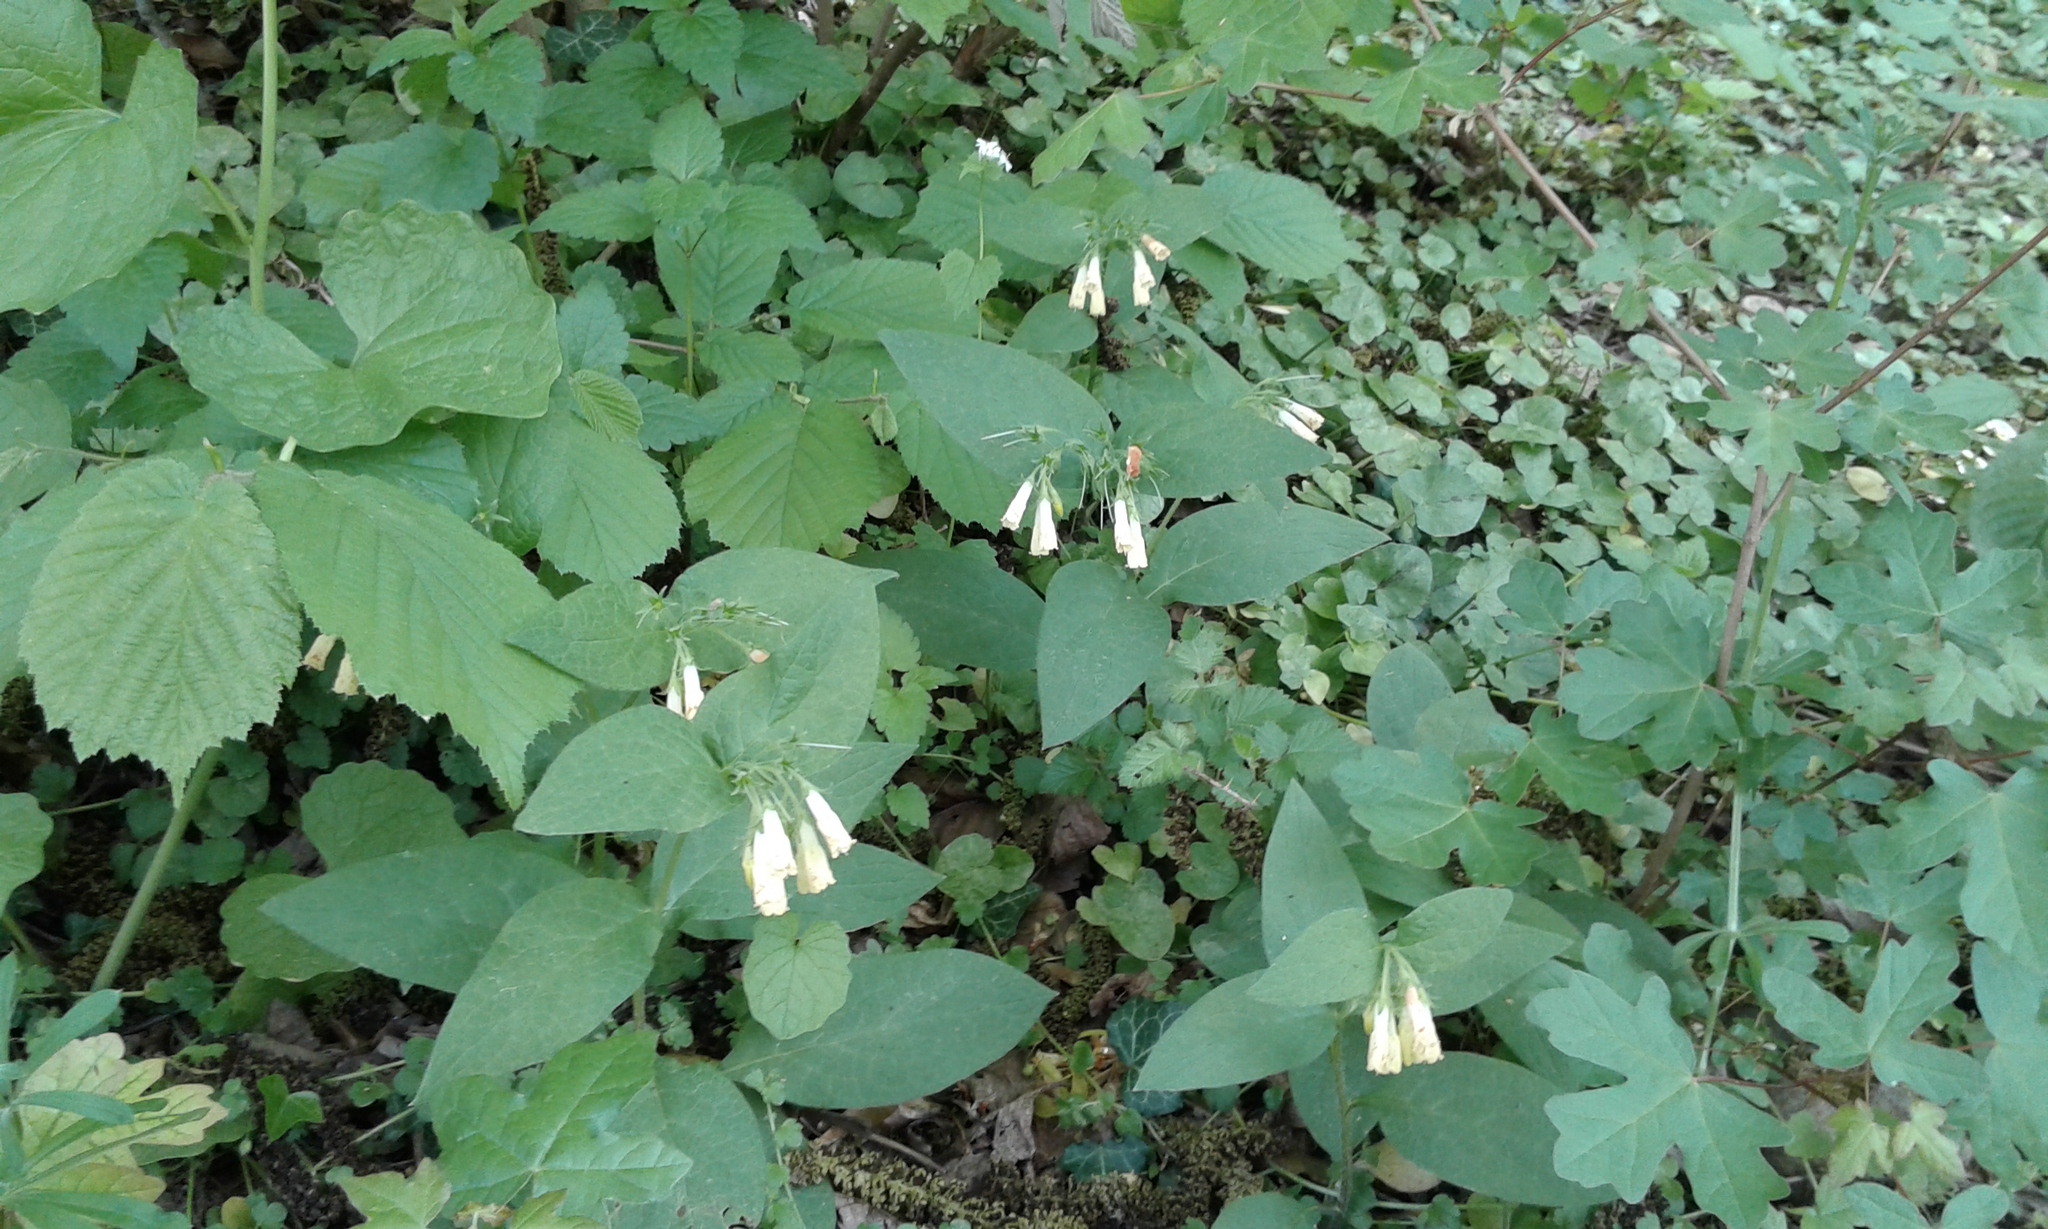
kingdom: Plantae
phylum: Tracheophyta
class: Magnoliopsida
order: Boraginales
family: Boraginaceae
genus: Symphytum
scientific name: Symphytum tuberosum
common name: Tuberous comfrey
